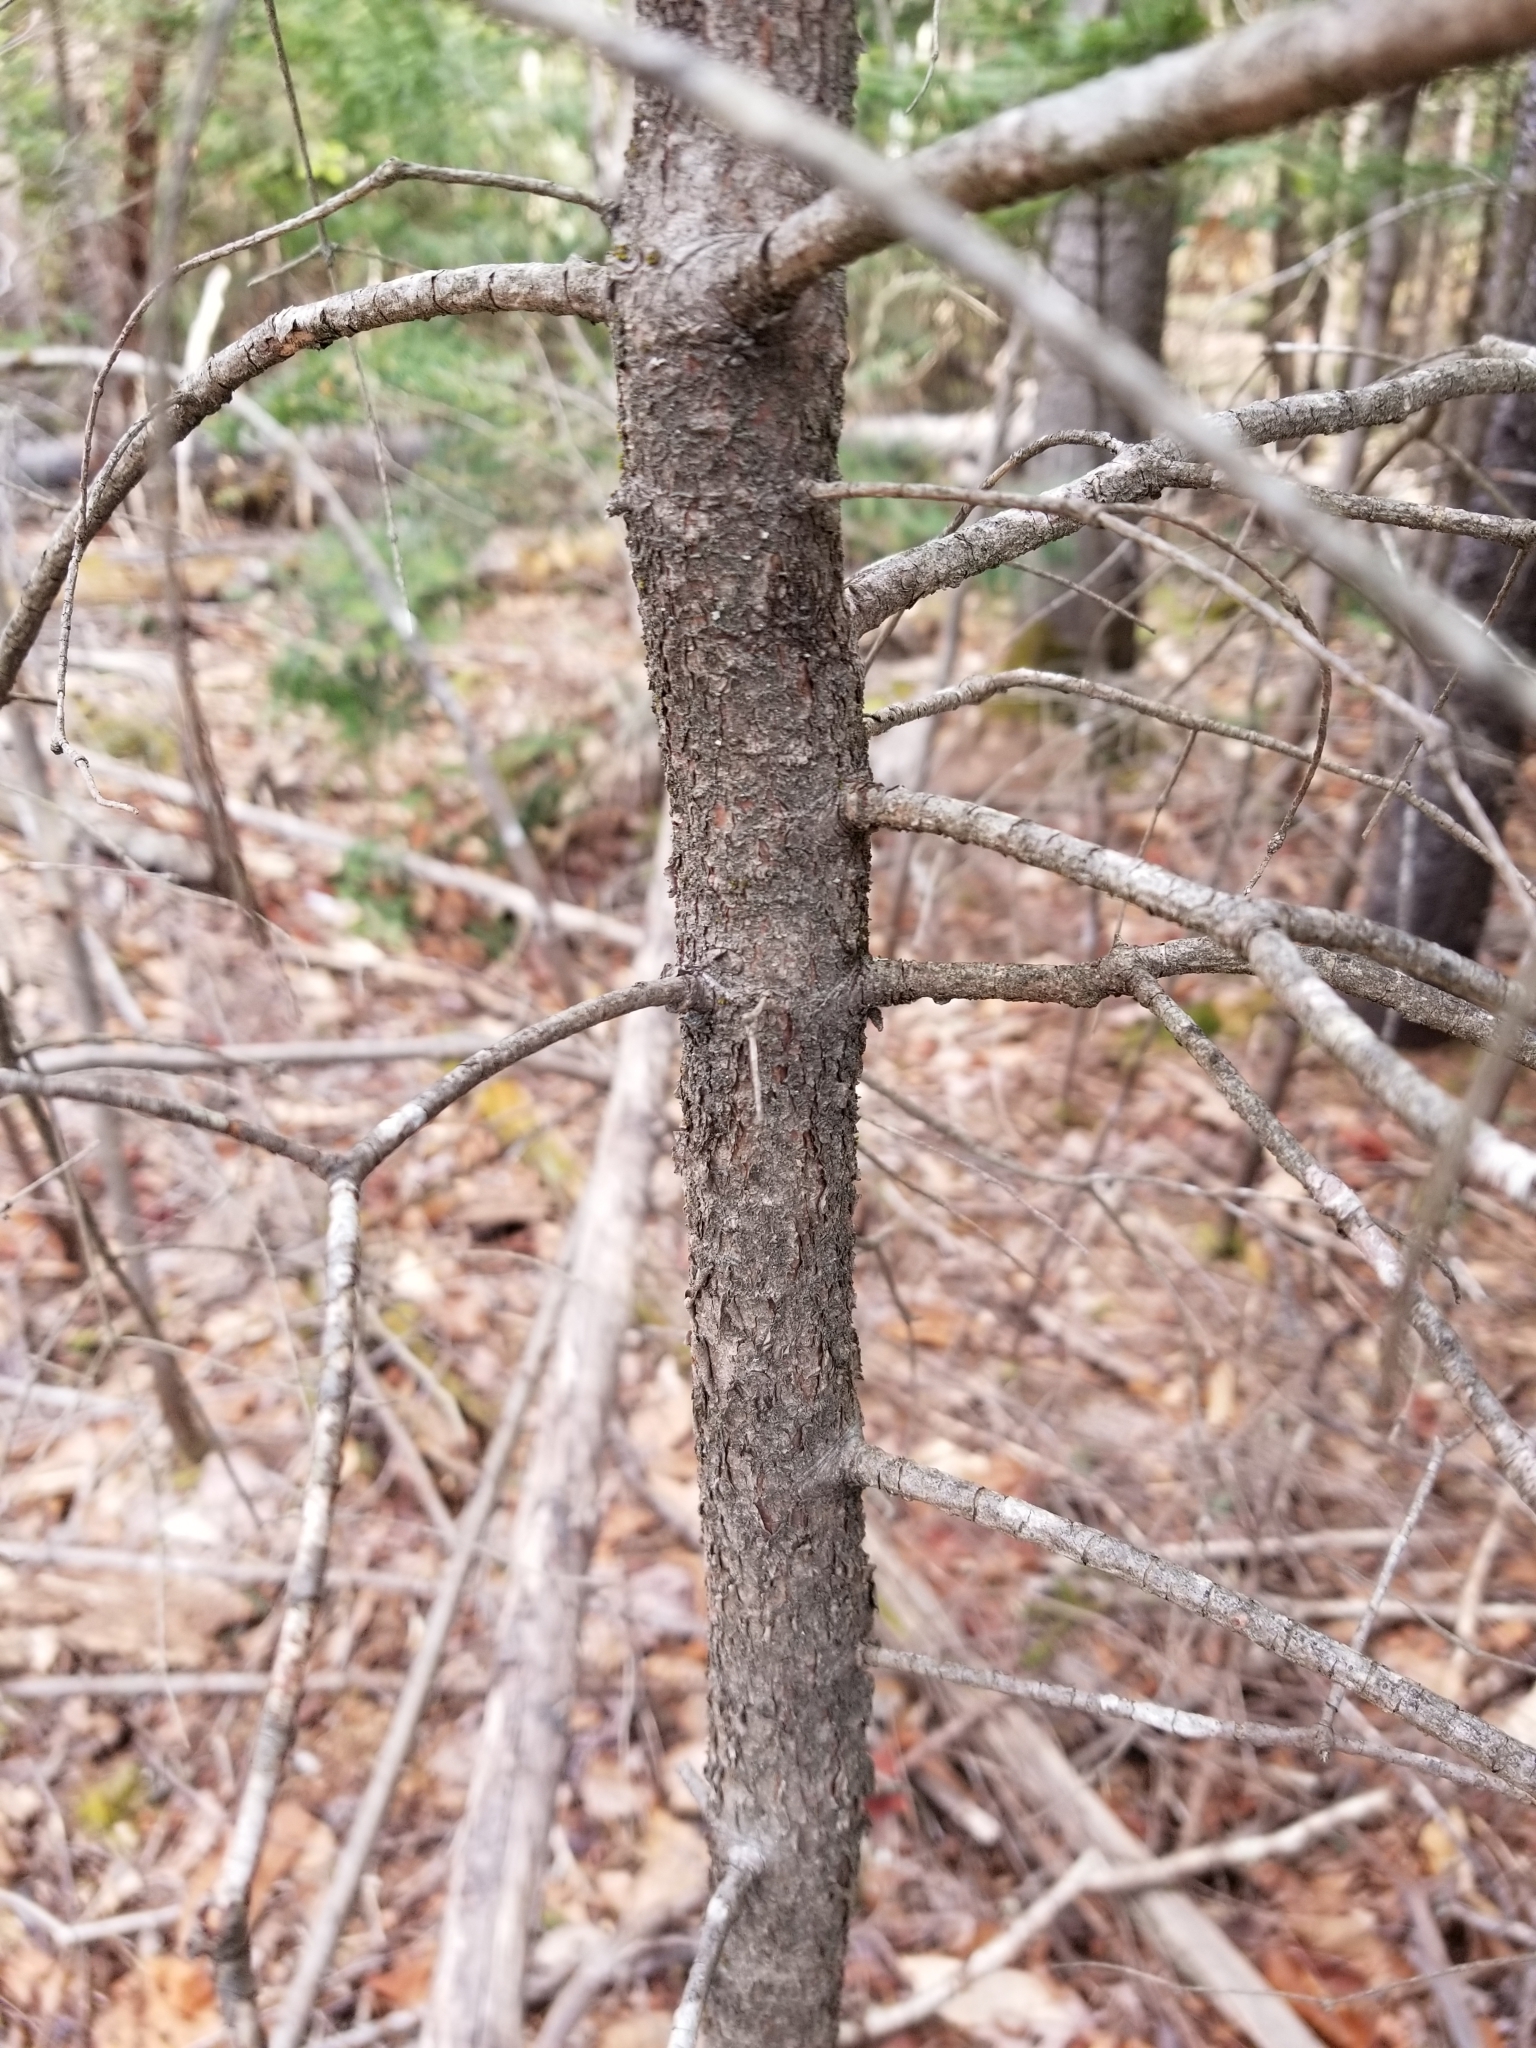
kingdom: Plantae
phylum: Tracheophyta
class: Pinopsida
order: Pinales
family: Pinaceae
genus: Abies
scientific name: Abies balsamea
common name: Balsam fir
